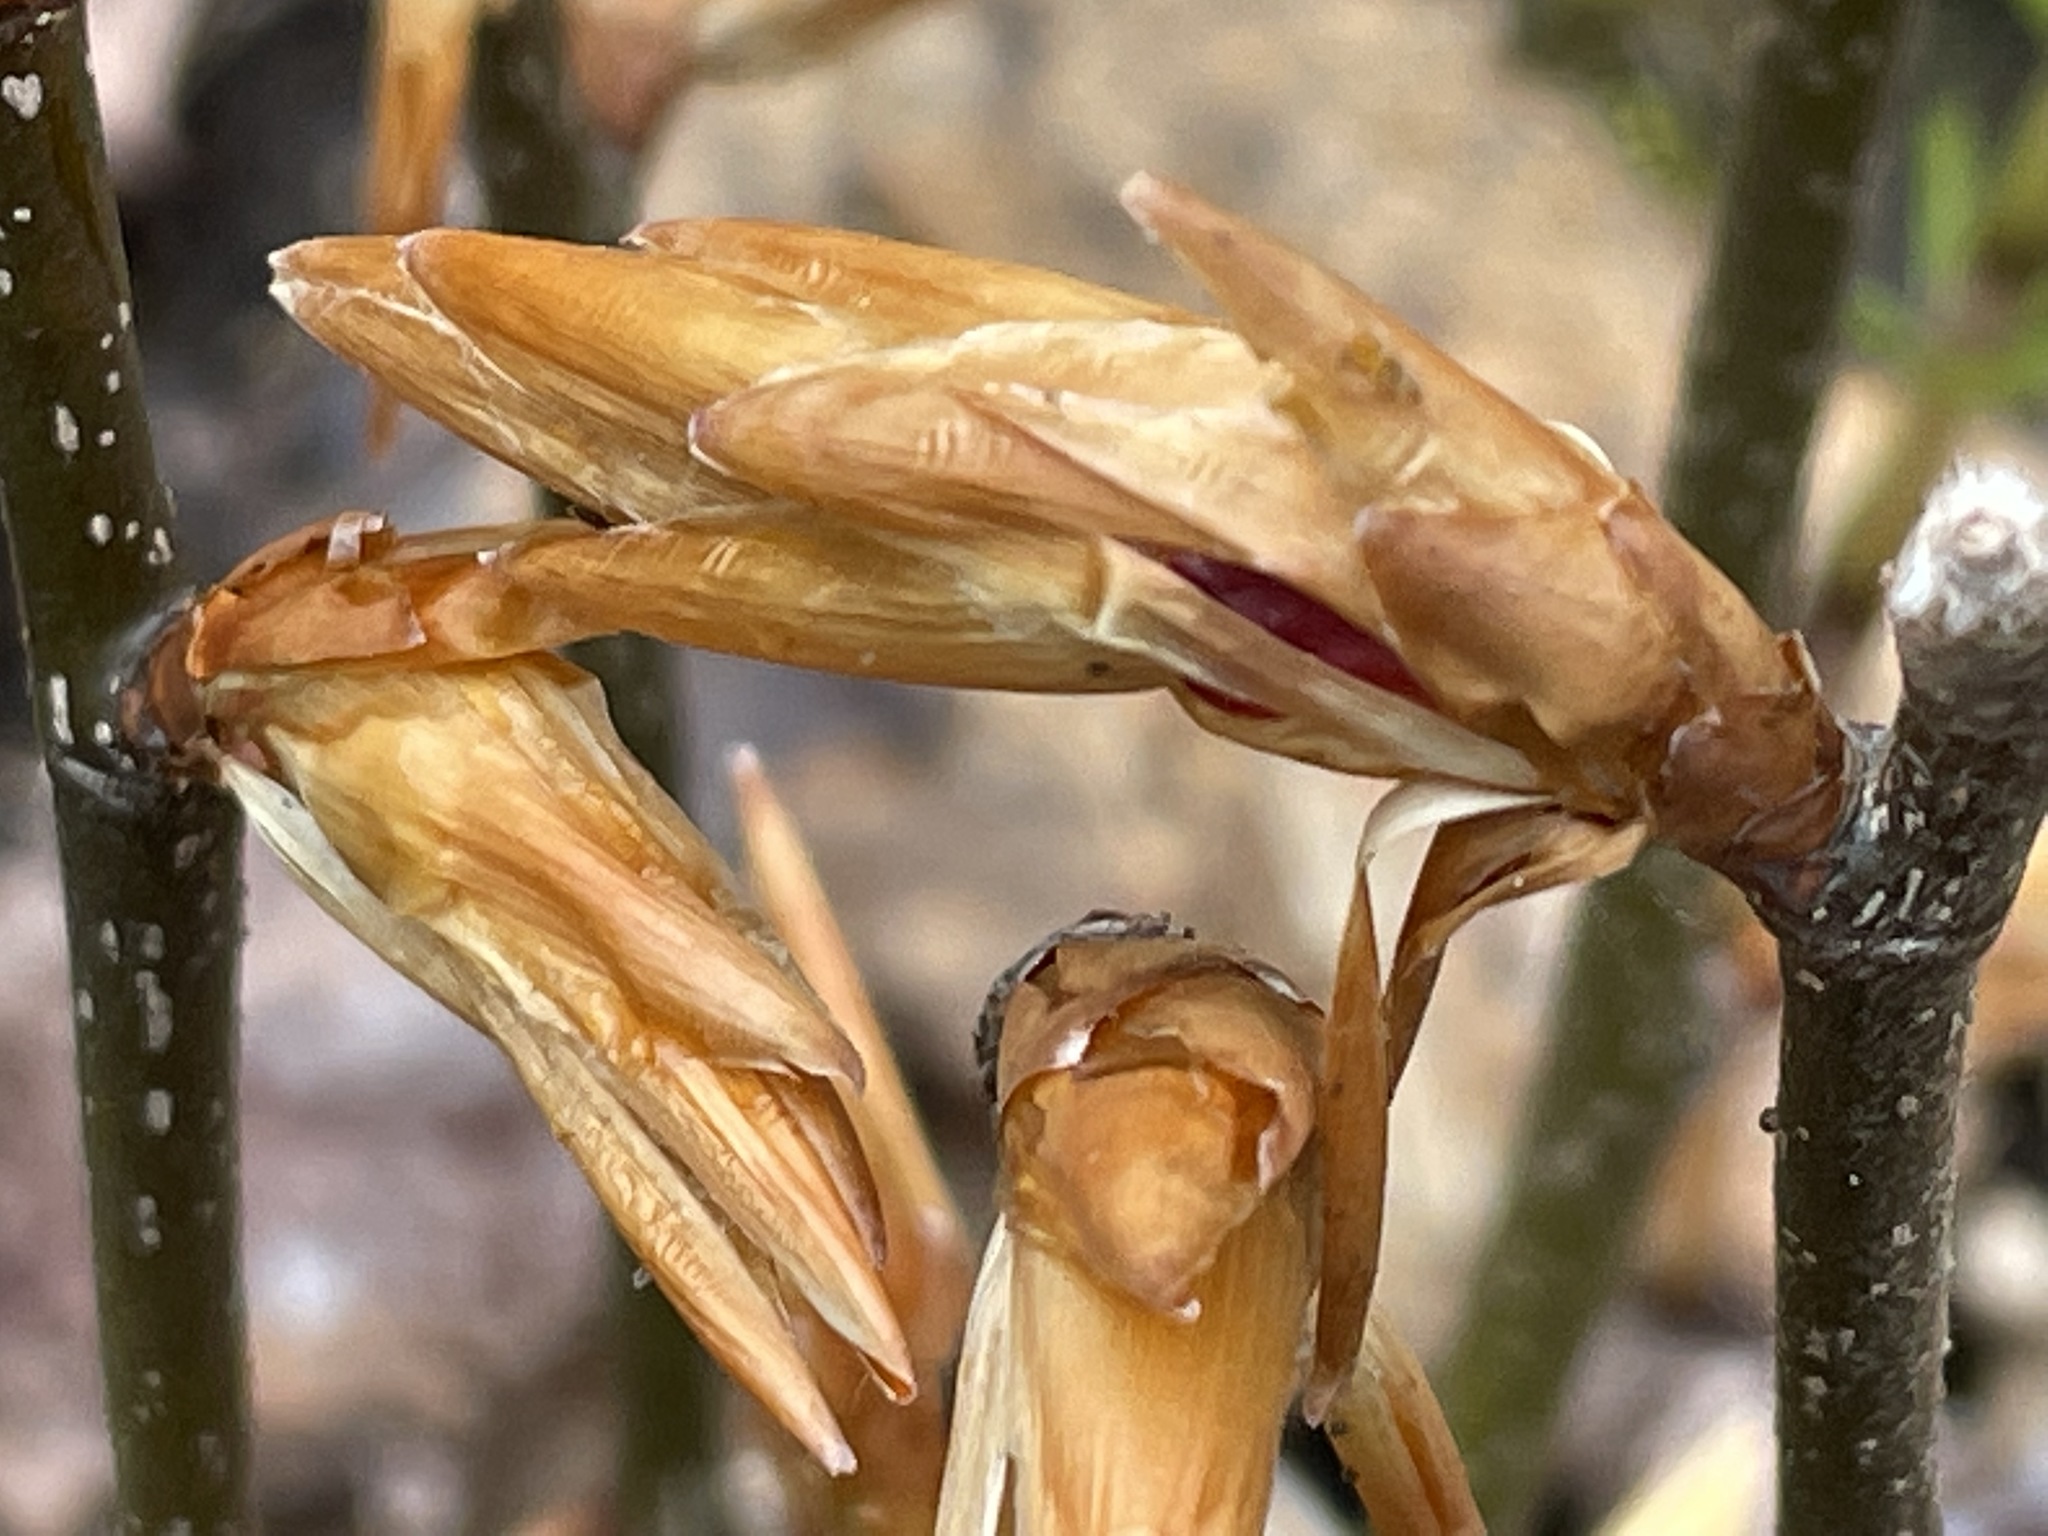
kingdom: Plantae
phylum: Tracheophyta
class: Magnoliopsida
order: Fagales
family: Fagaceae
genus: Fagus
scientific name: Fagus grandifolia
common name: American beech
